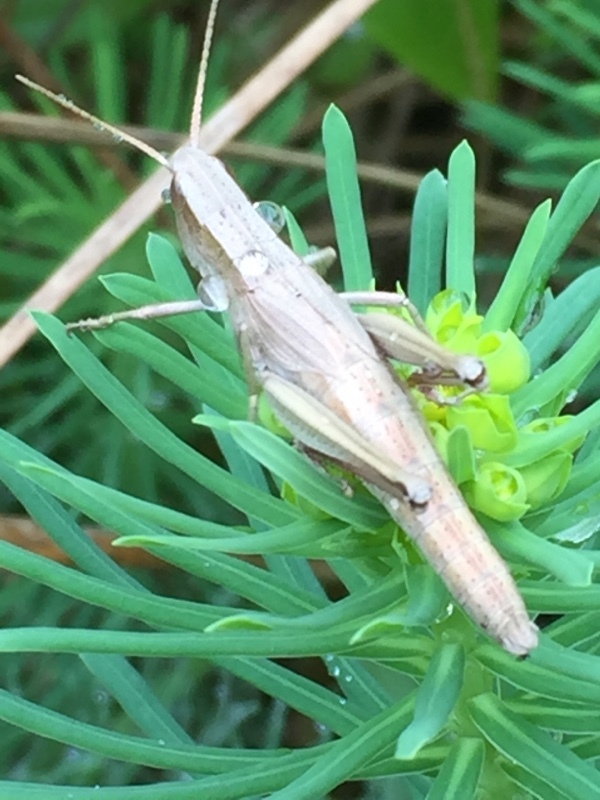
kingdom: Animalia
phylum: Arthropoda
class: Insecta
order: Orthoptera
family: Acrididae
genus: Chrysochraon
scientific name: Chrysochraon dispar
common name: Large gold grasshopper
